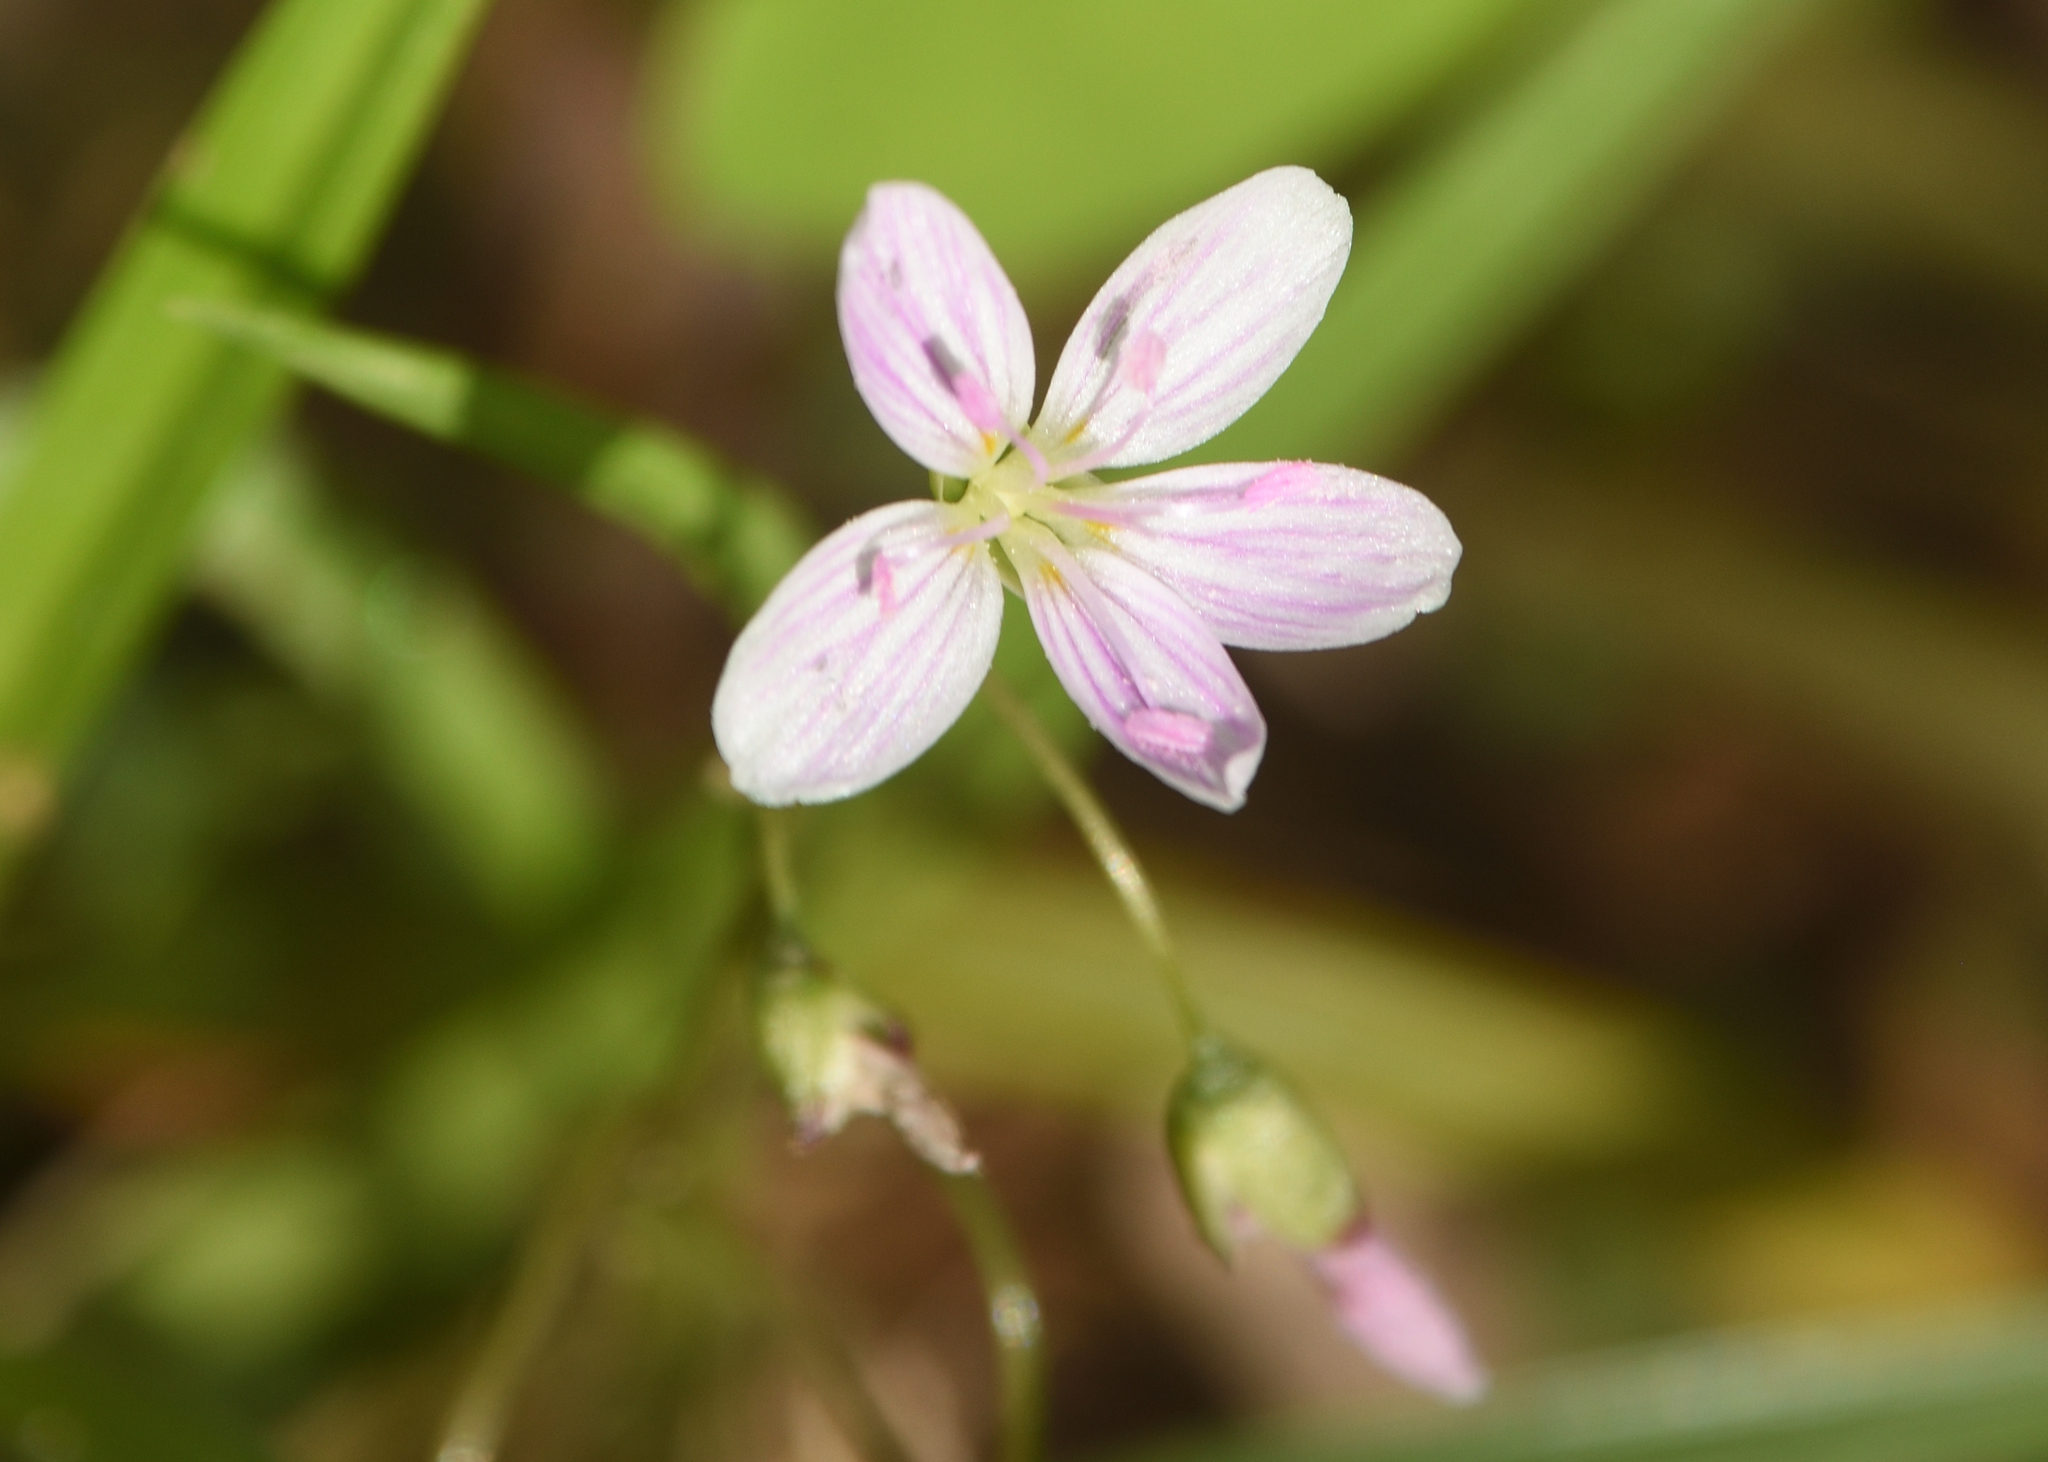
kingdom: Plantae
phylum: Tracheophyta
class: Magnoliopsida
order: Caryophyllales
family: Montiaceae
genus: Claytonia
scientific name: Claytonia virginica
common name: Virginia springbeauty
